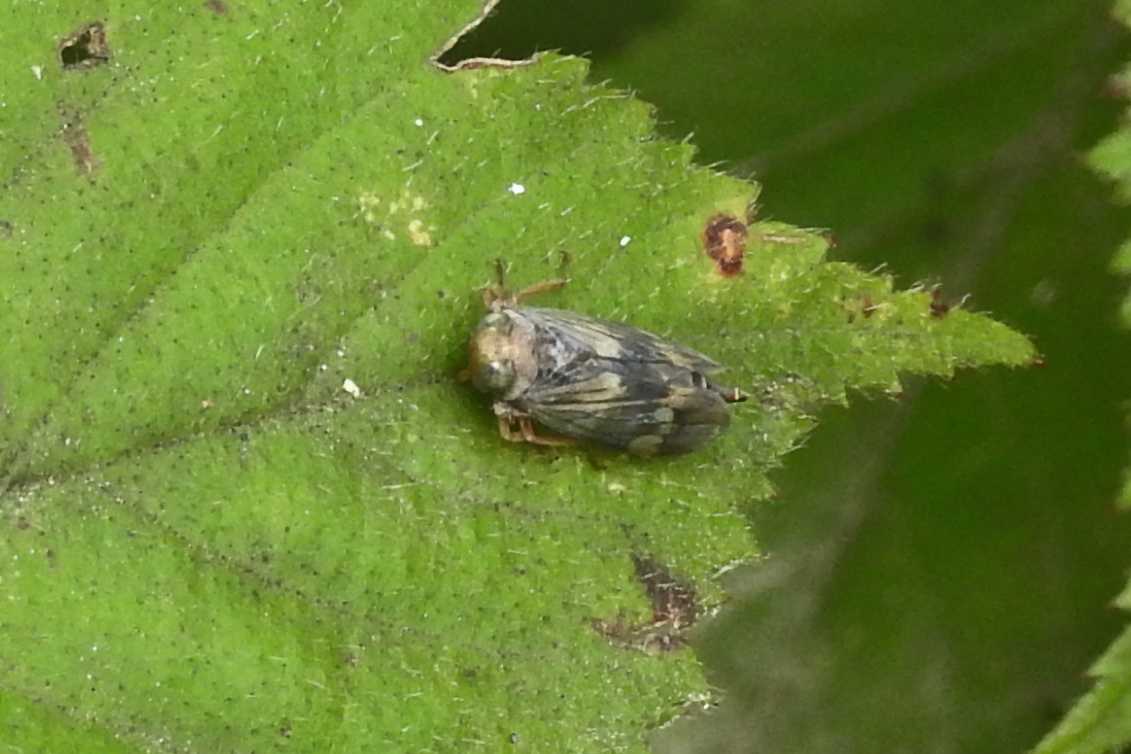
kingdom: Animalia
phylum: Arthropoda
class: Insecta
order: Hemiptera
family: Cicadellidae
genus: Jikradia
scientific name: Jikradia olitoria
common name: Coppery leafhopper
